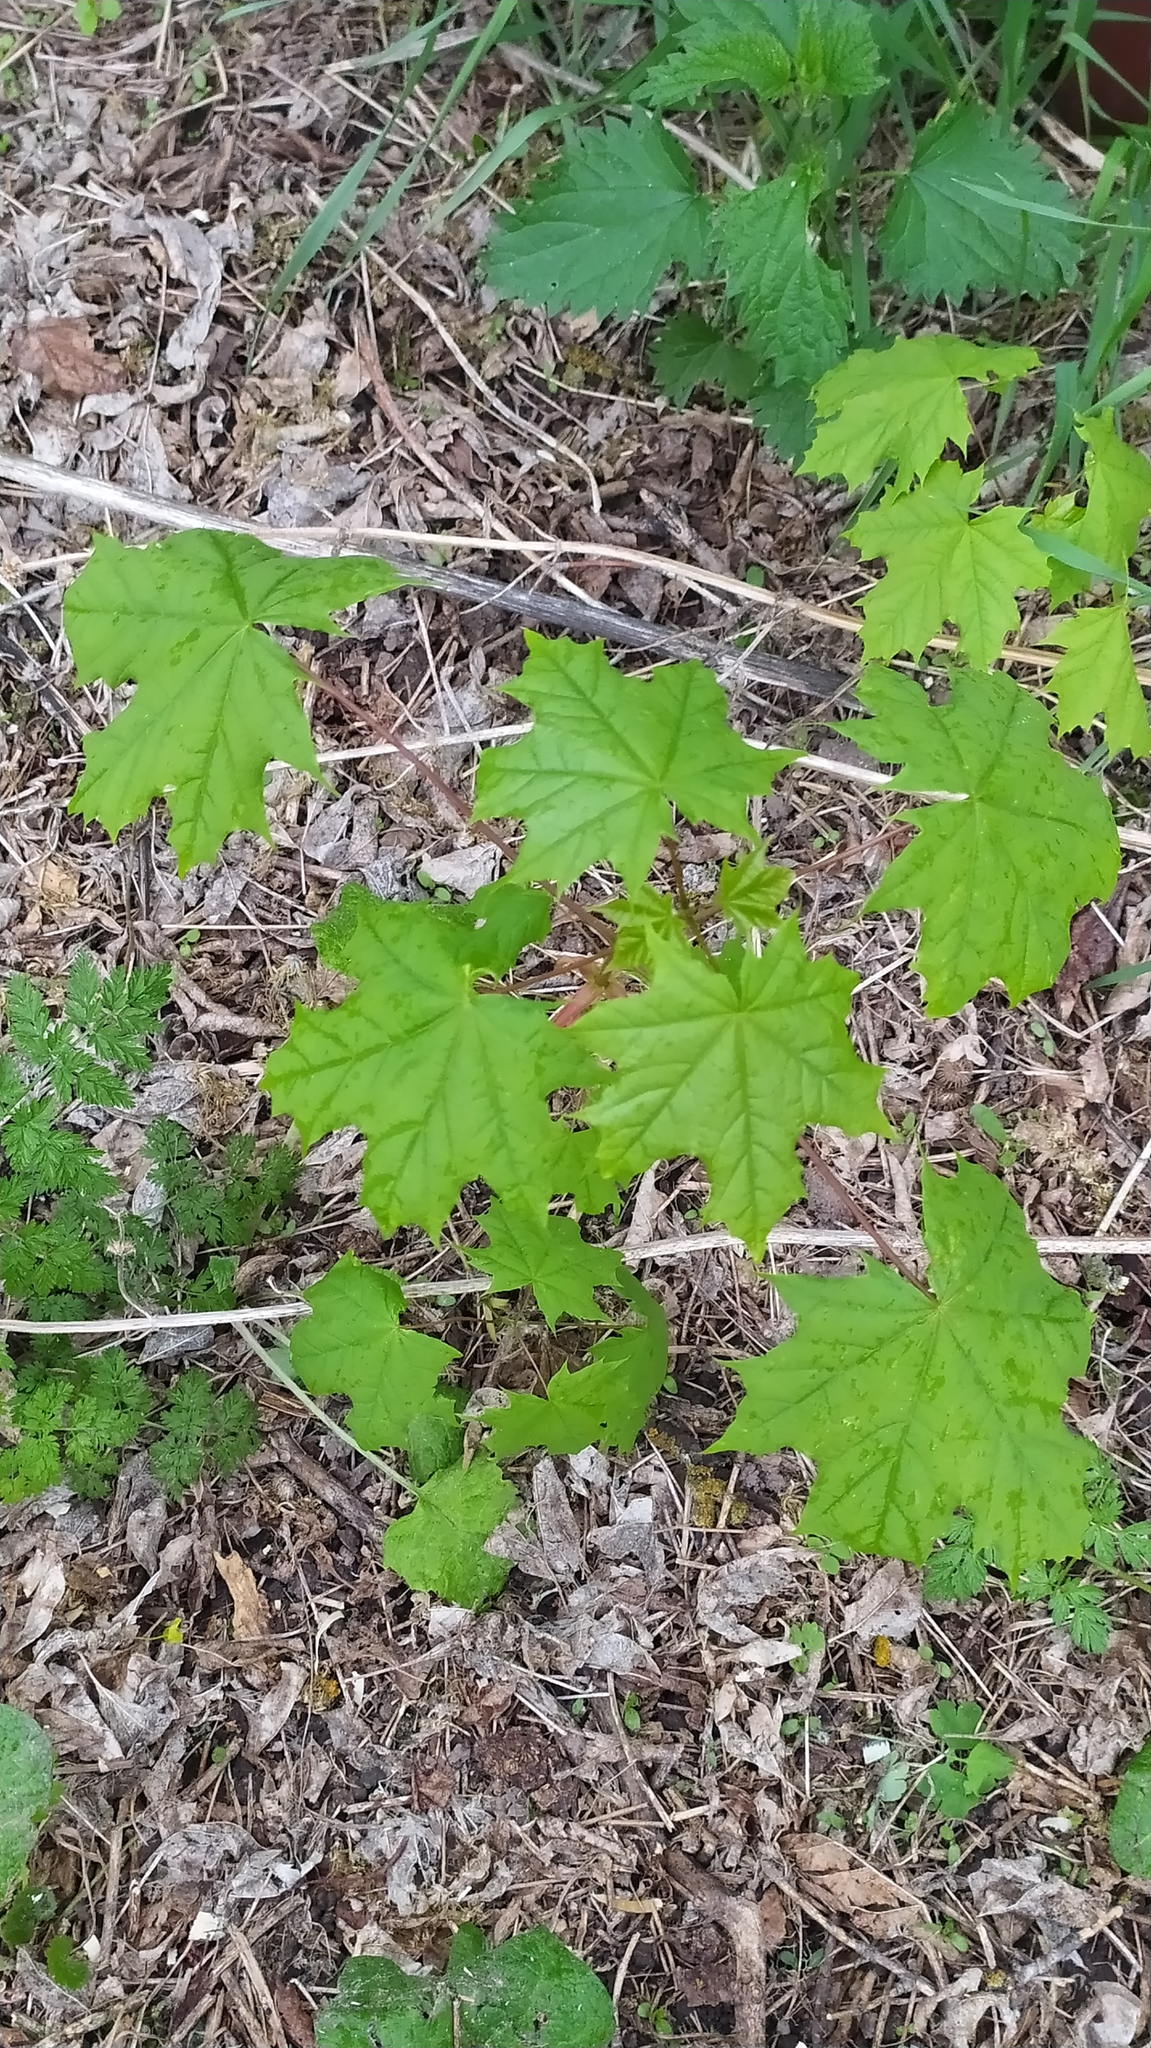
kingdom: Plantae
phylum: Tracheophyta
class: Magnoliopsida
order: Sapindales
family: Sapindaceae
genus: Acer
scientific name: Acer platanoides
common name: Norway maple
